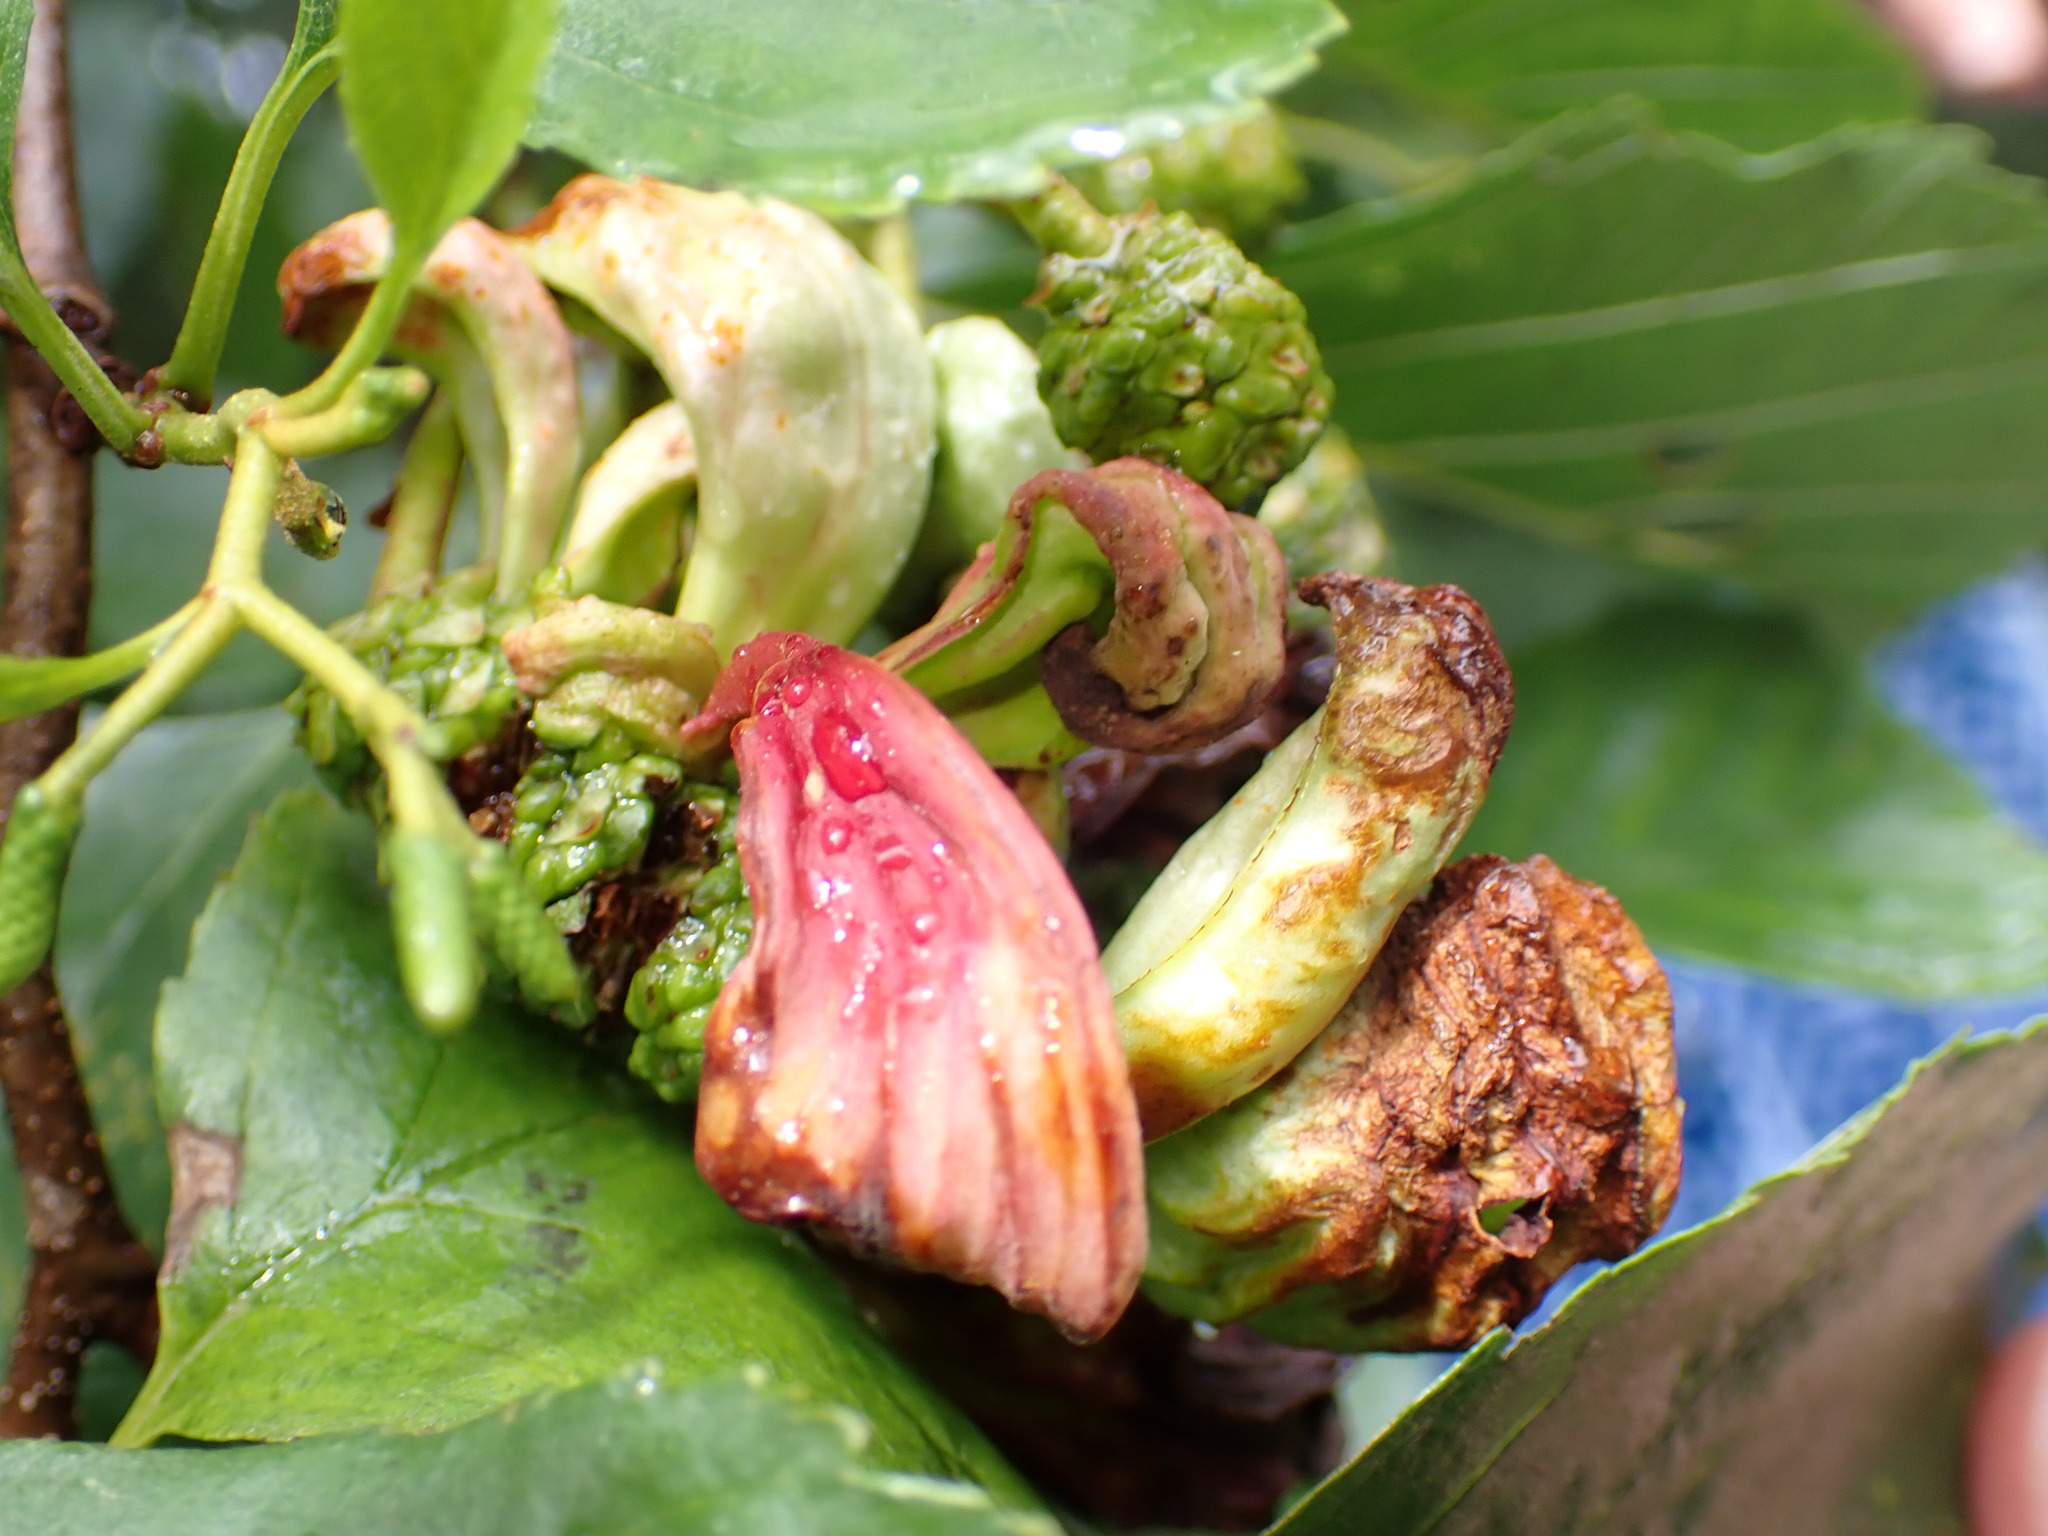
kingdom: Fungi
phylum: Ascomycota
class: Taphrinomycetes
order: Taphrinales
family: Taphrinaceae
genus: Taphrina
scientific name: Taphrina alni
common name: Alder tongue
